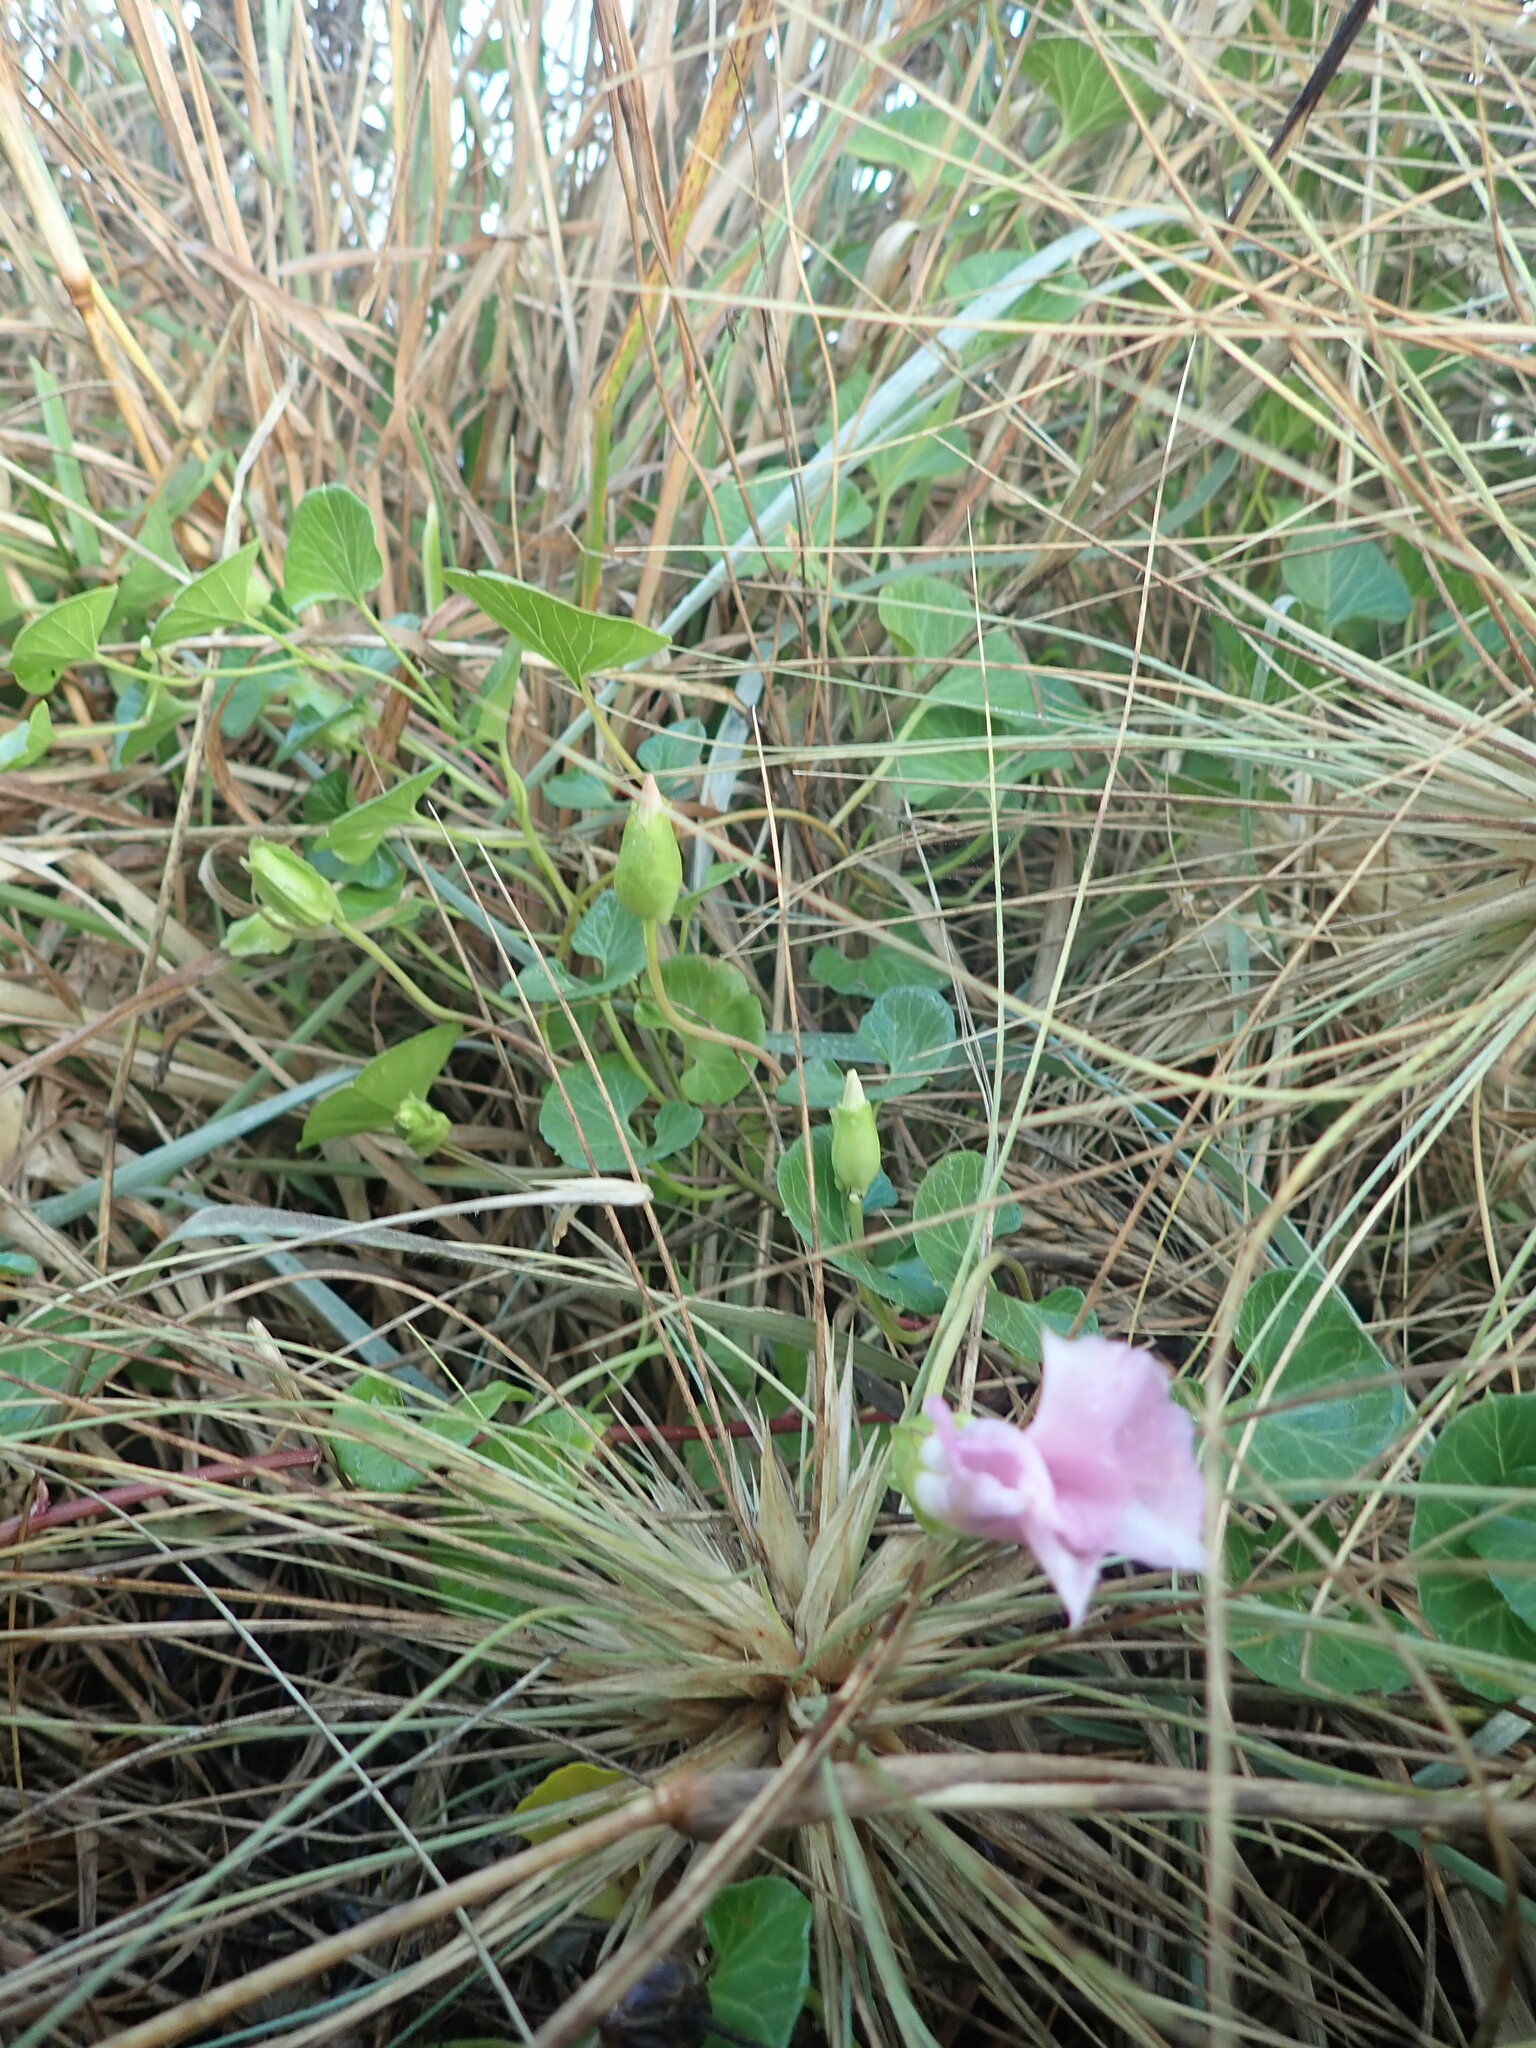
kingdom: Plantae
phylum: Tracheophyta
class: Magnoliopsida
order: Solanales
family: Convolvulaceae
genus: Calystegia
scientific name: Calystegia soldanella
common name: Sea bindweed
